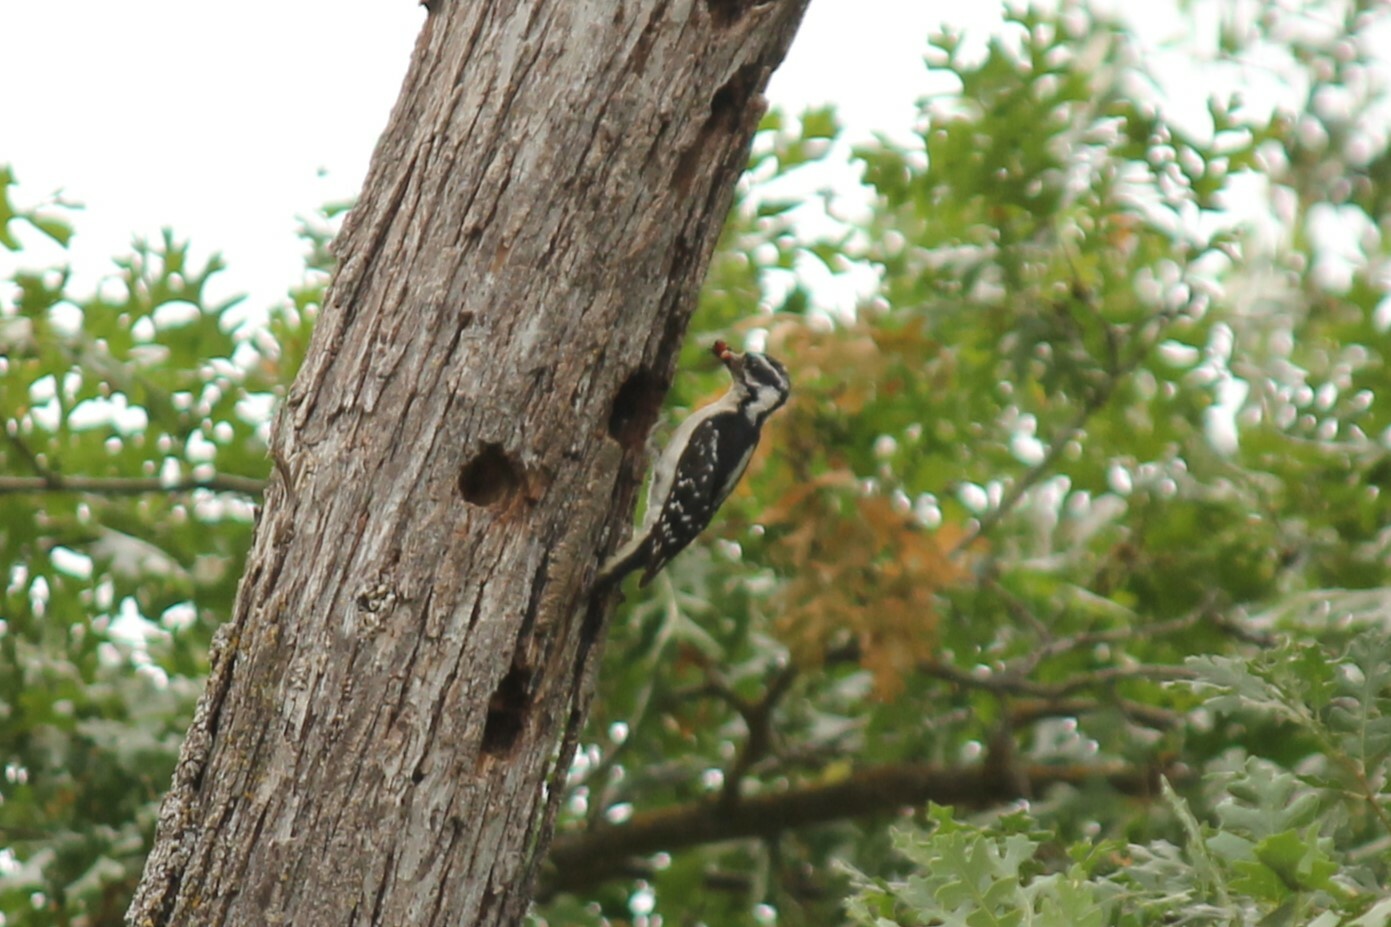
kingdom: Animalia
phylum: Chordata
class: Aves
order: Piciformes
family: Picidae
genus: Dryobates
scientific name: Dryobates pubescens
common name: Downy woodpecker
